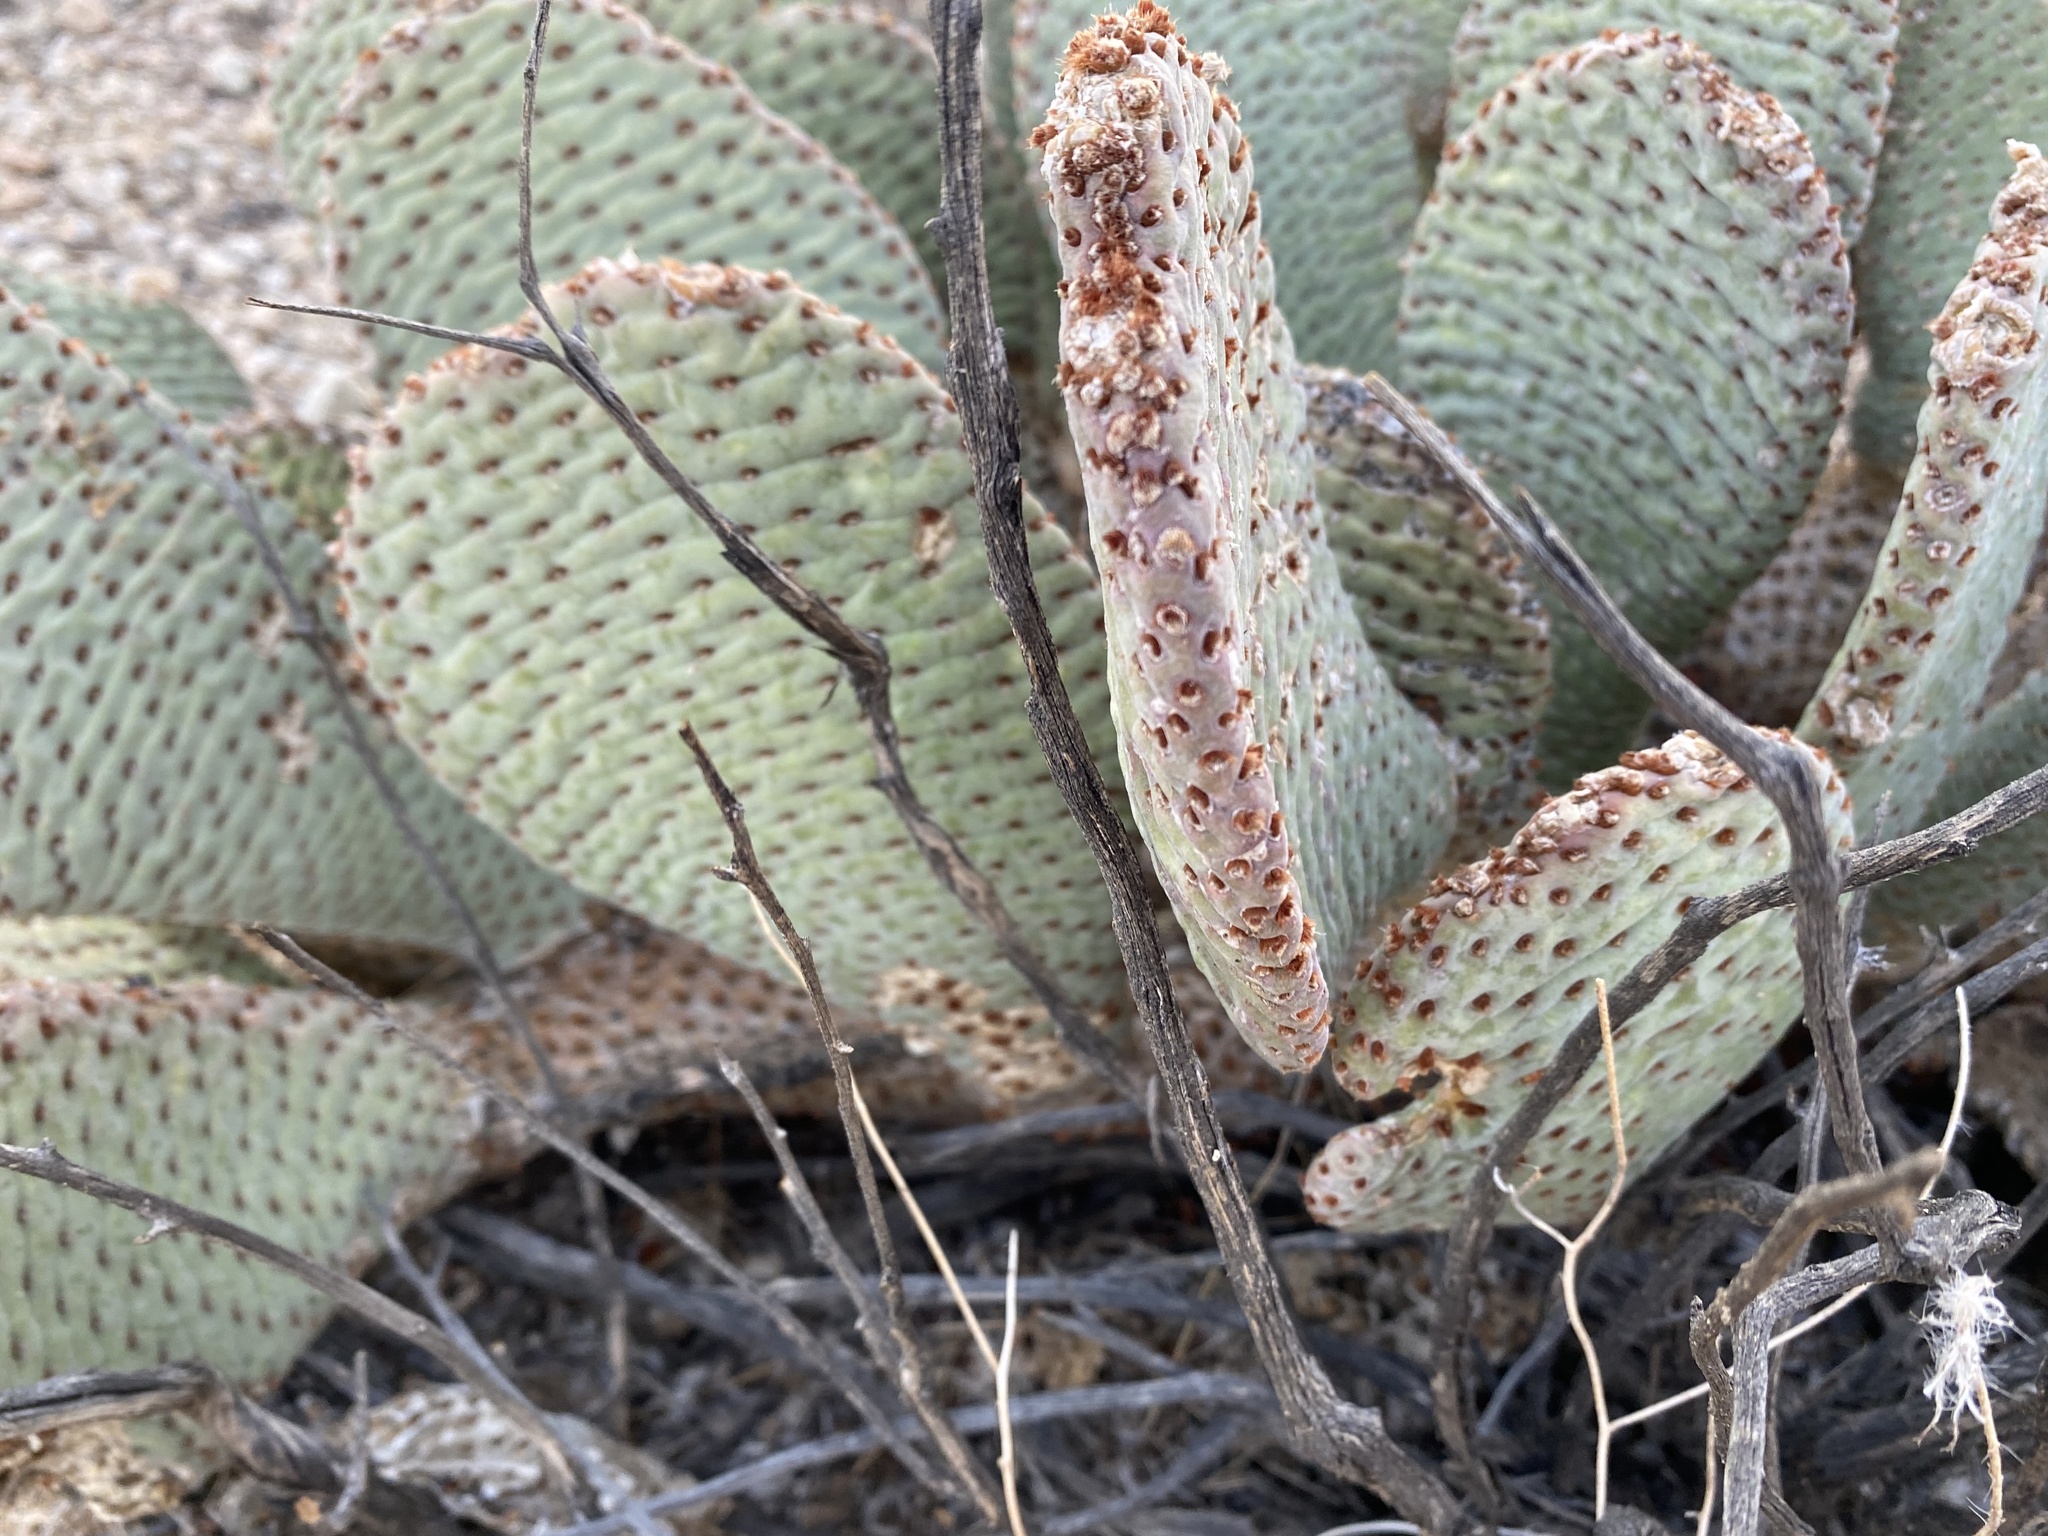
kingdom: Plantae
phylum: Tracheophyta
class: Magnoliopsida
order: Caryophyllales
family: Cactaceae
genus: Opuntia
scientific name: Opuntia basilaris
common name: Beavertail prickly-pear
